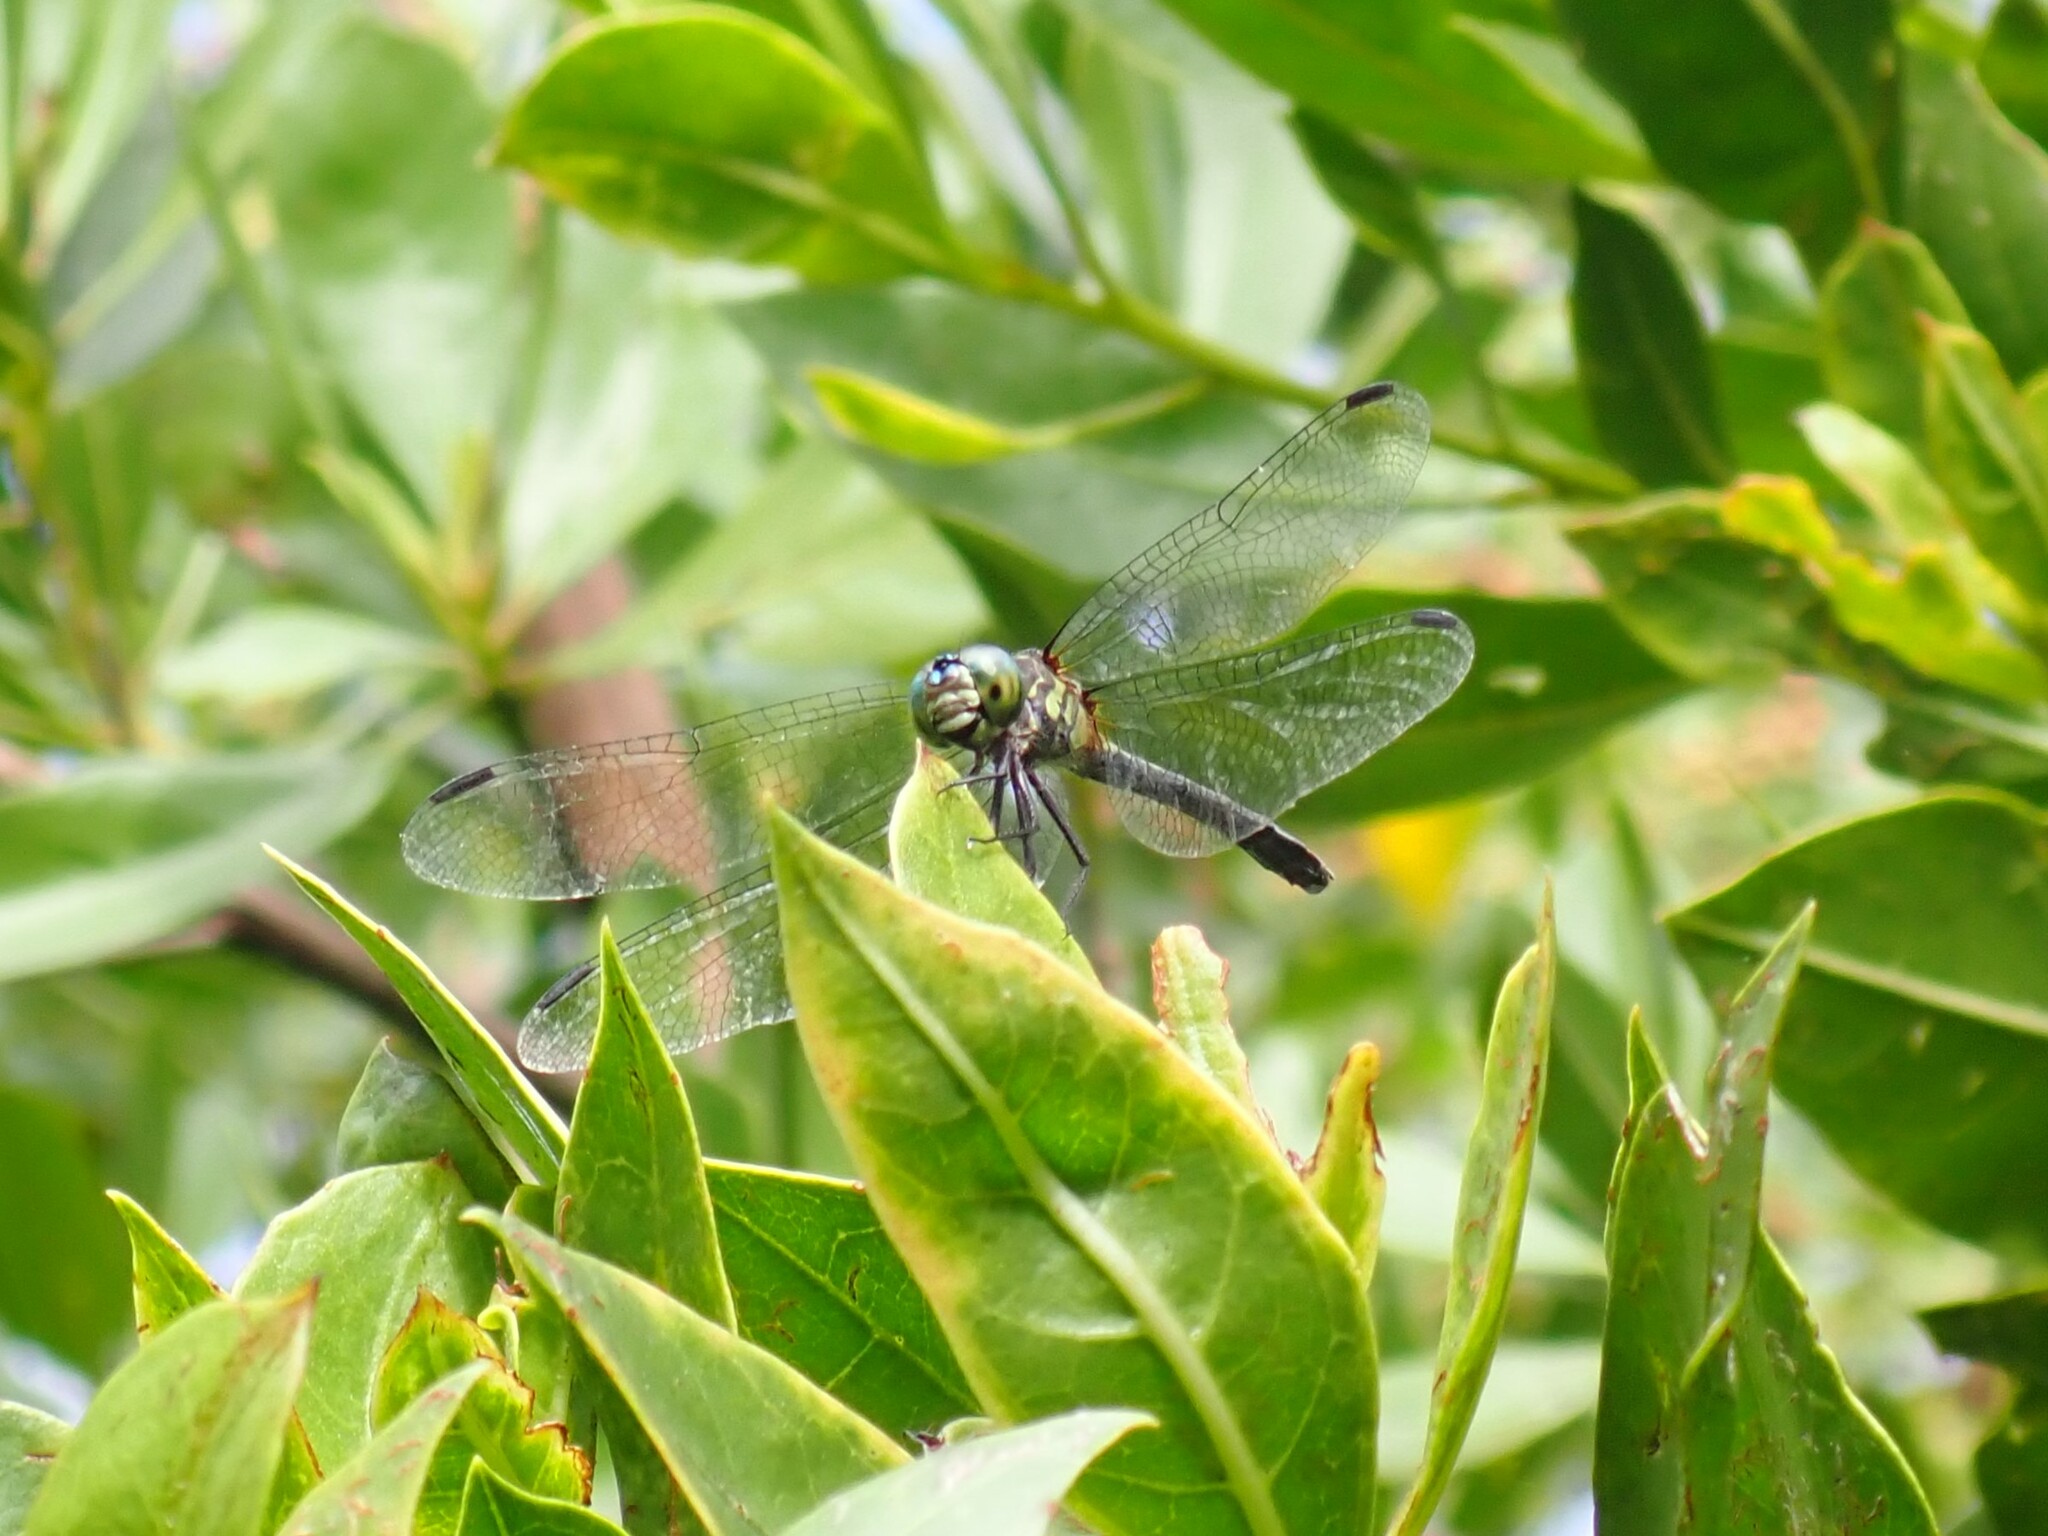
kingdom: Animalia
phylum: Arthropoda
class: Insecta
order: Odonata
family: Libellulidae
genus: Micrathyria
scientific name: Micrathyria didyma
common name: Three-striped dasher
